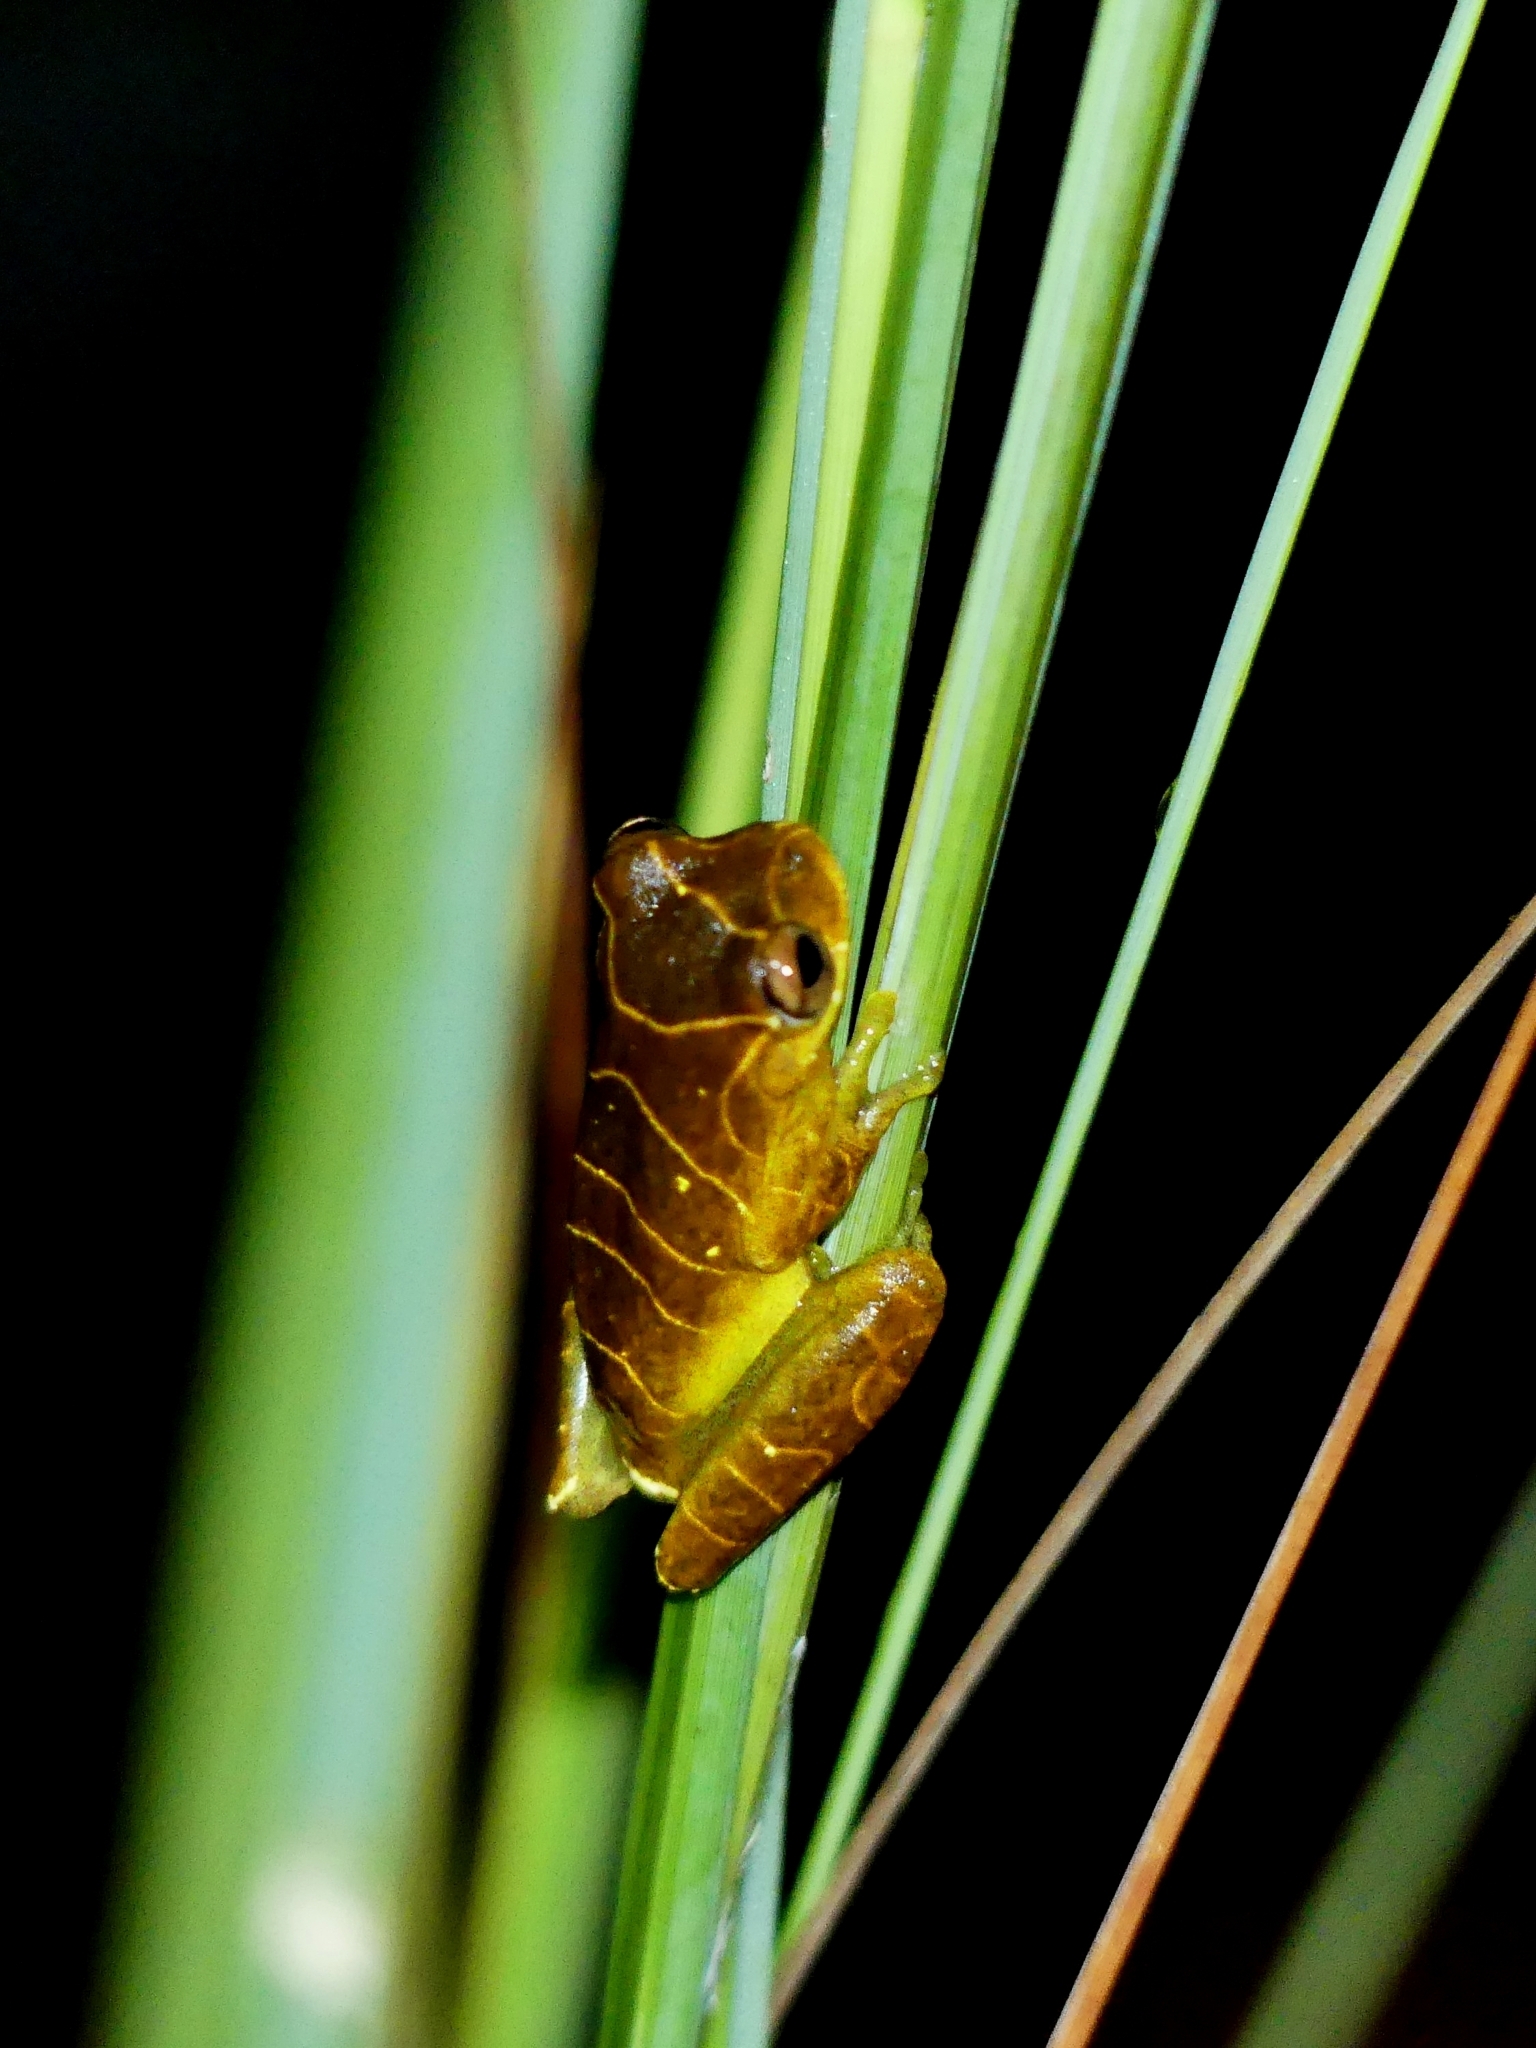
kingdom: Animalia
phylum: Chordata
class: Amphibia
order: Anura
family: Hylidae
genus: Dendropsophus
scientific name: Dendropsophus minutus
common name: Lesser treefrog
